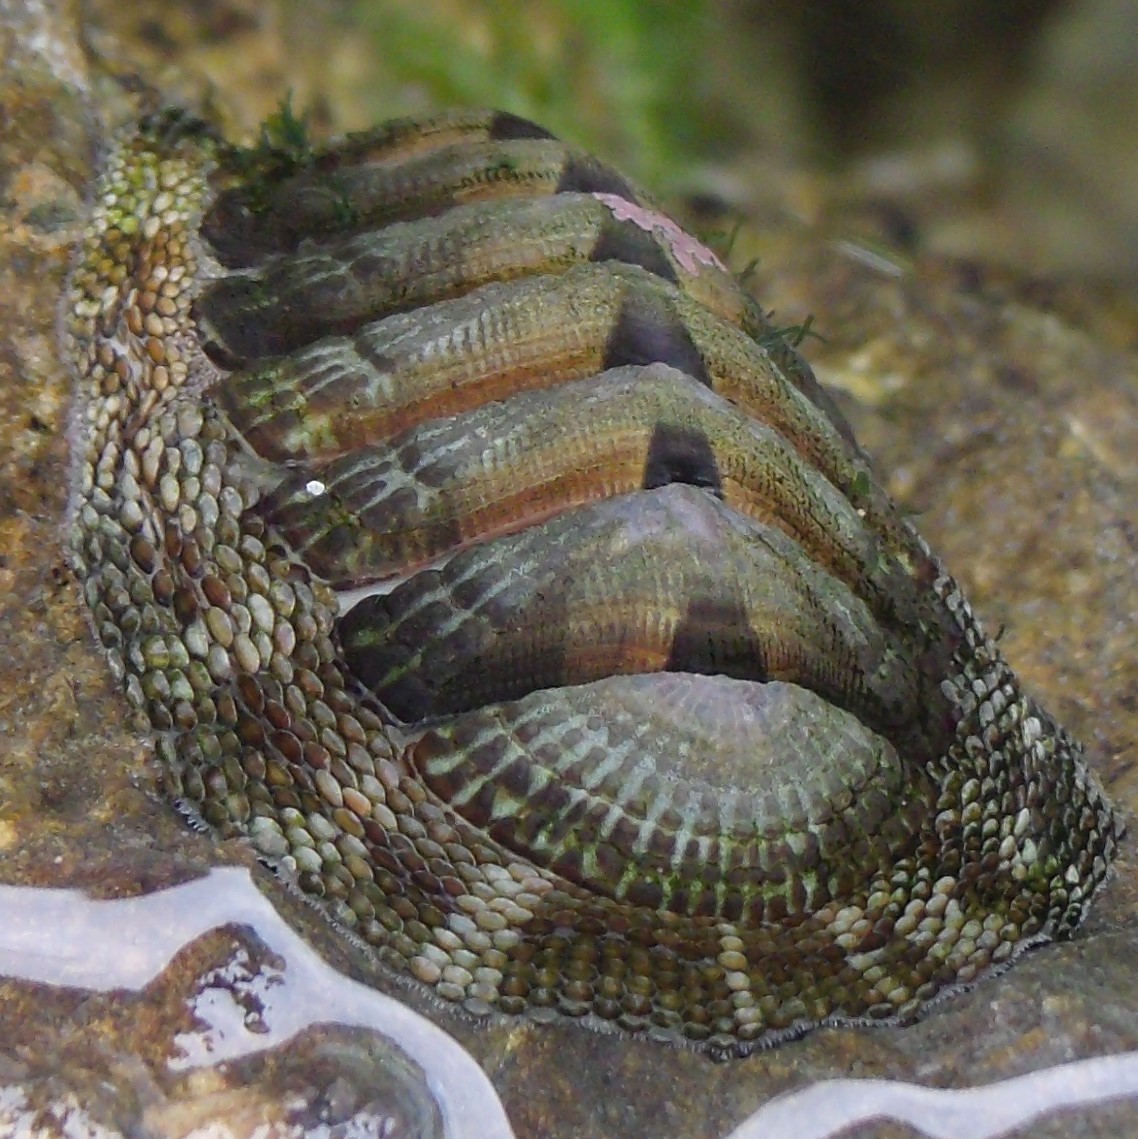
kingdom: Animalia
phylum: Mollusca
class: Polyplacophora
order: Chitonida
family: Chitonidae
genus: Sypharochiton
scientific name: Sypharochiton pelliserpentis
